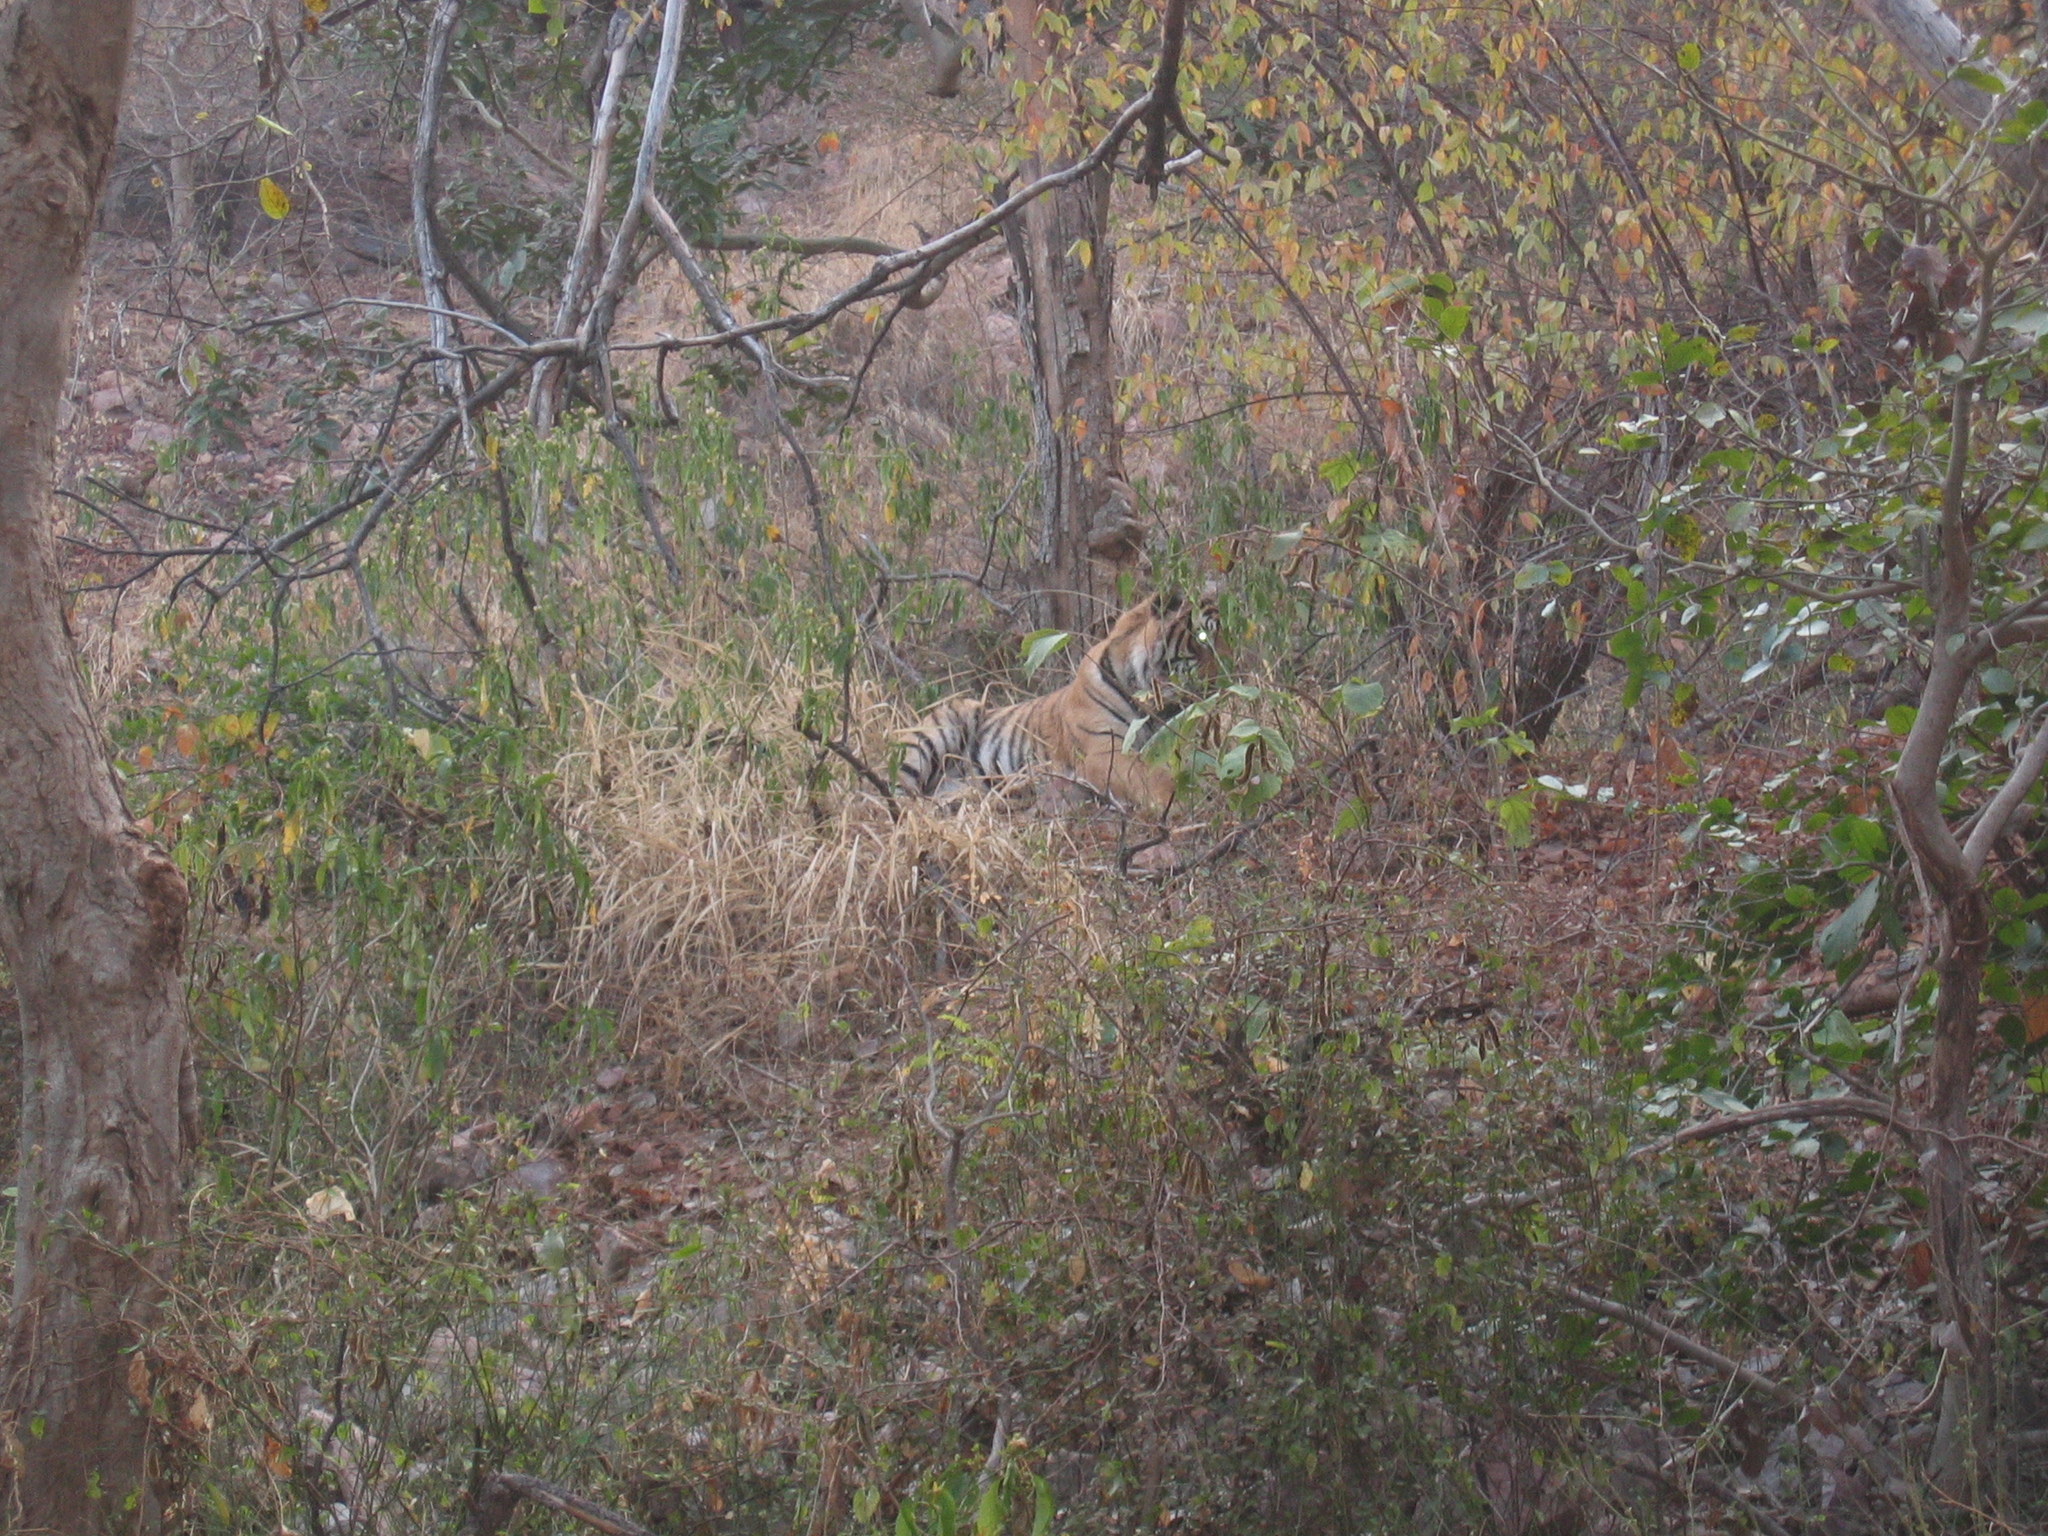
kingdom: Animalia
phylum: Chordata
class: Mammalia
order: Carnivora
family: Felidae
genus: Panthera
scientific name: Panthera tigris
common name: Tiger
